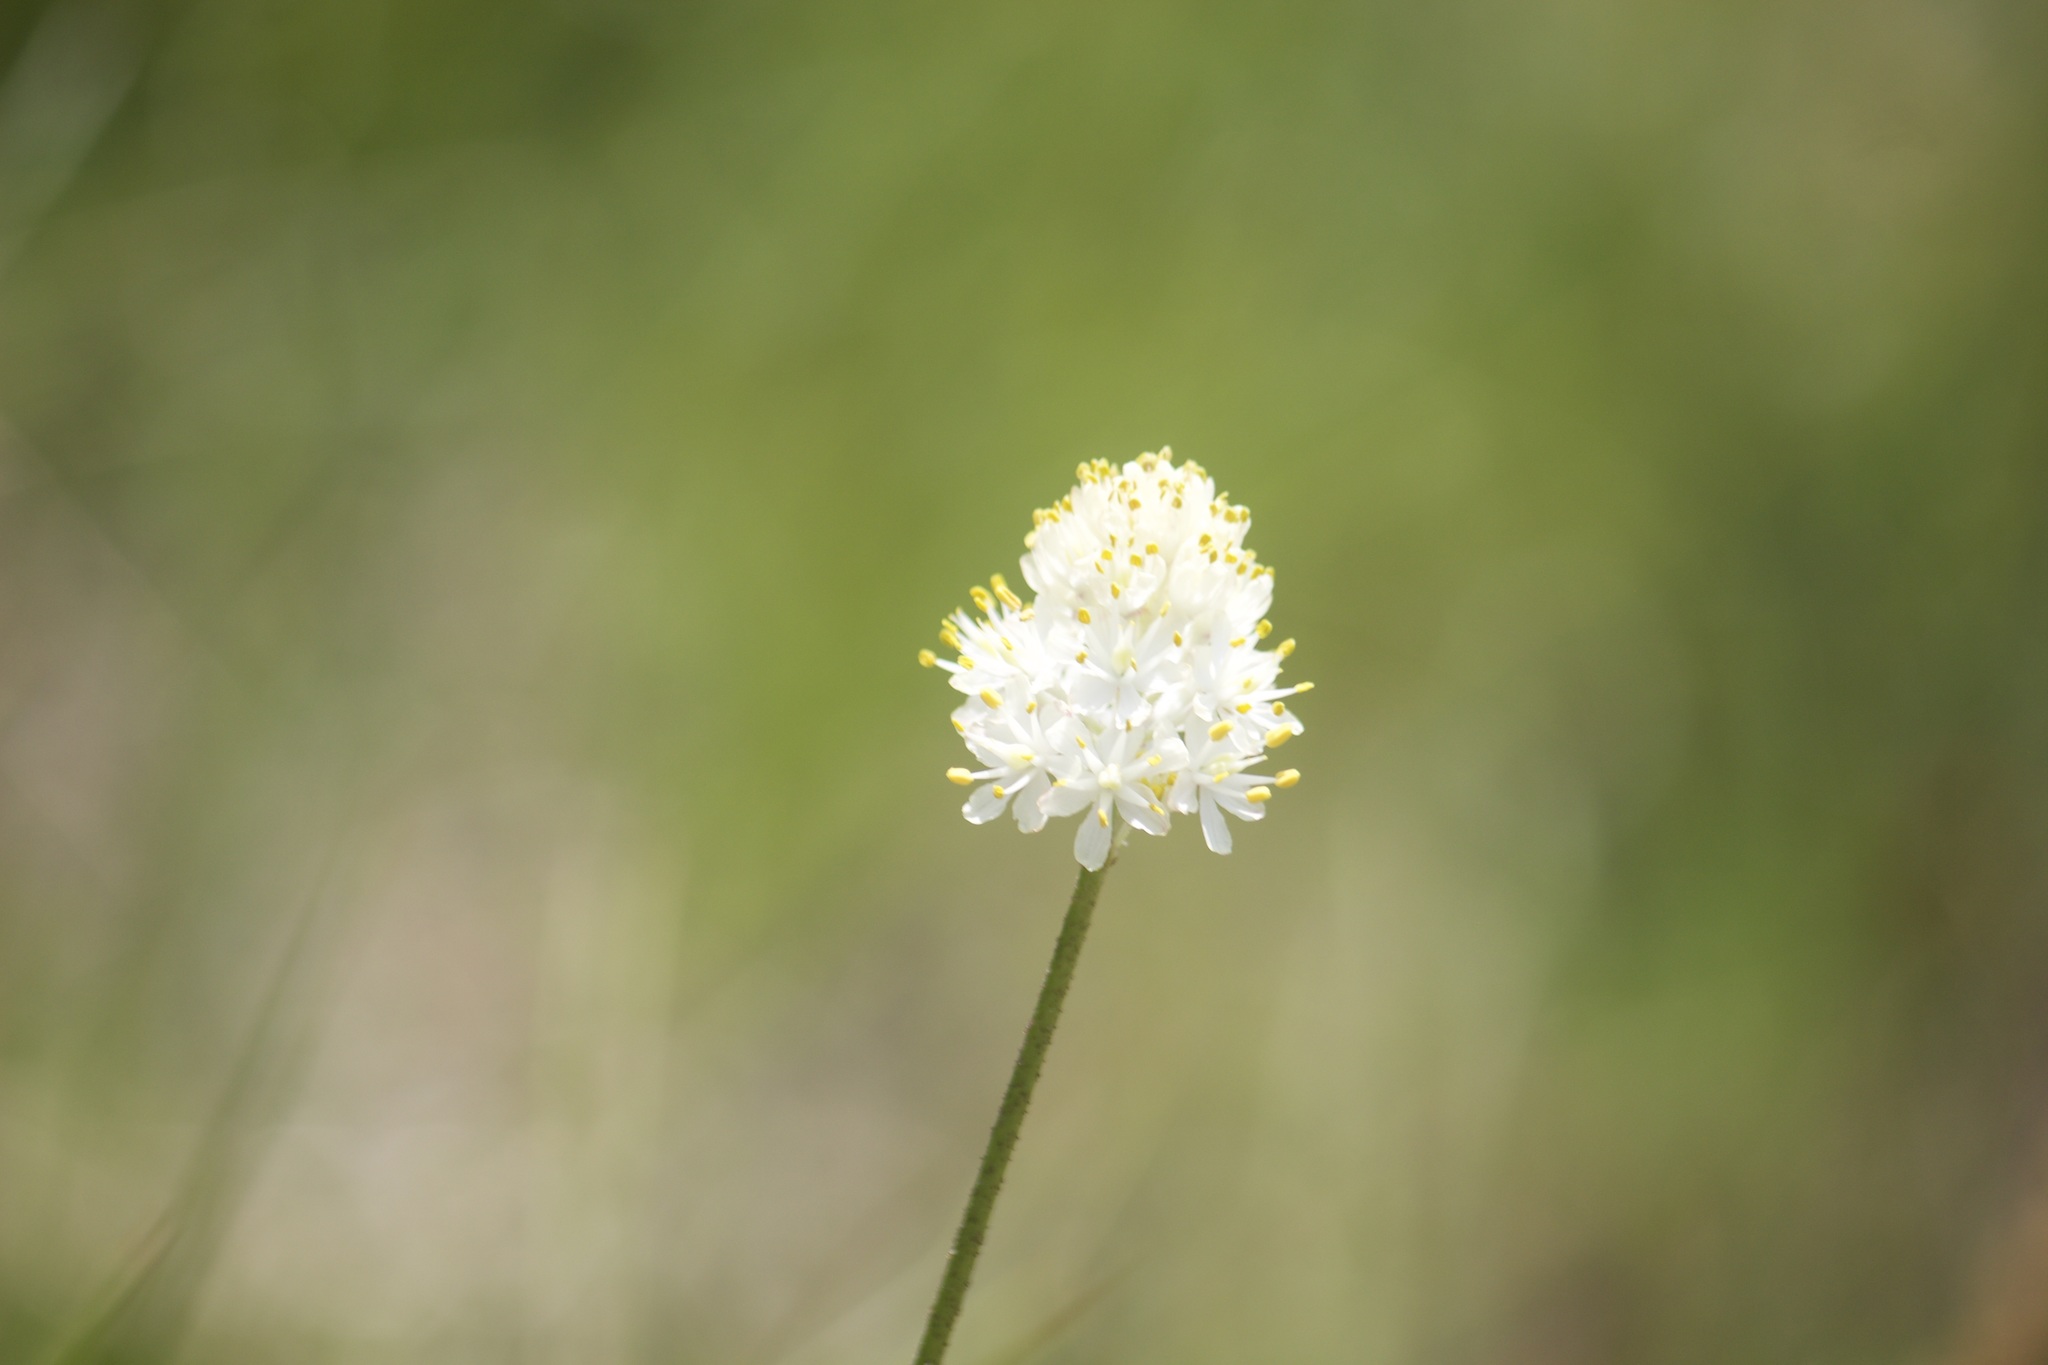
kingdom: Plantae
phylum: Tracheophyta
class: Liliopsida
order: Alismatales
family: Tofieldiaceae
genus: Triantha
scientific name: Triantha occidentalis
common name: Western false asphodel
